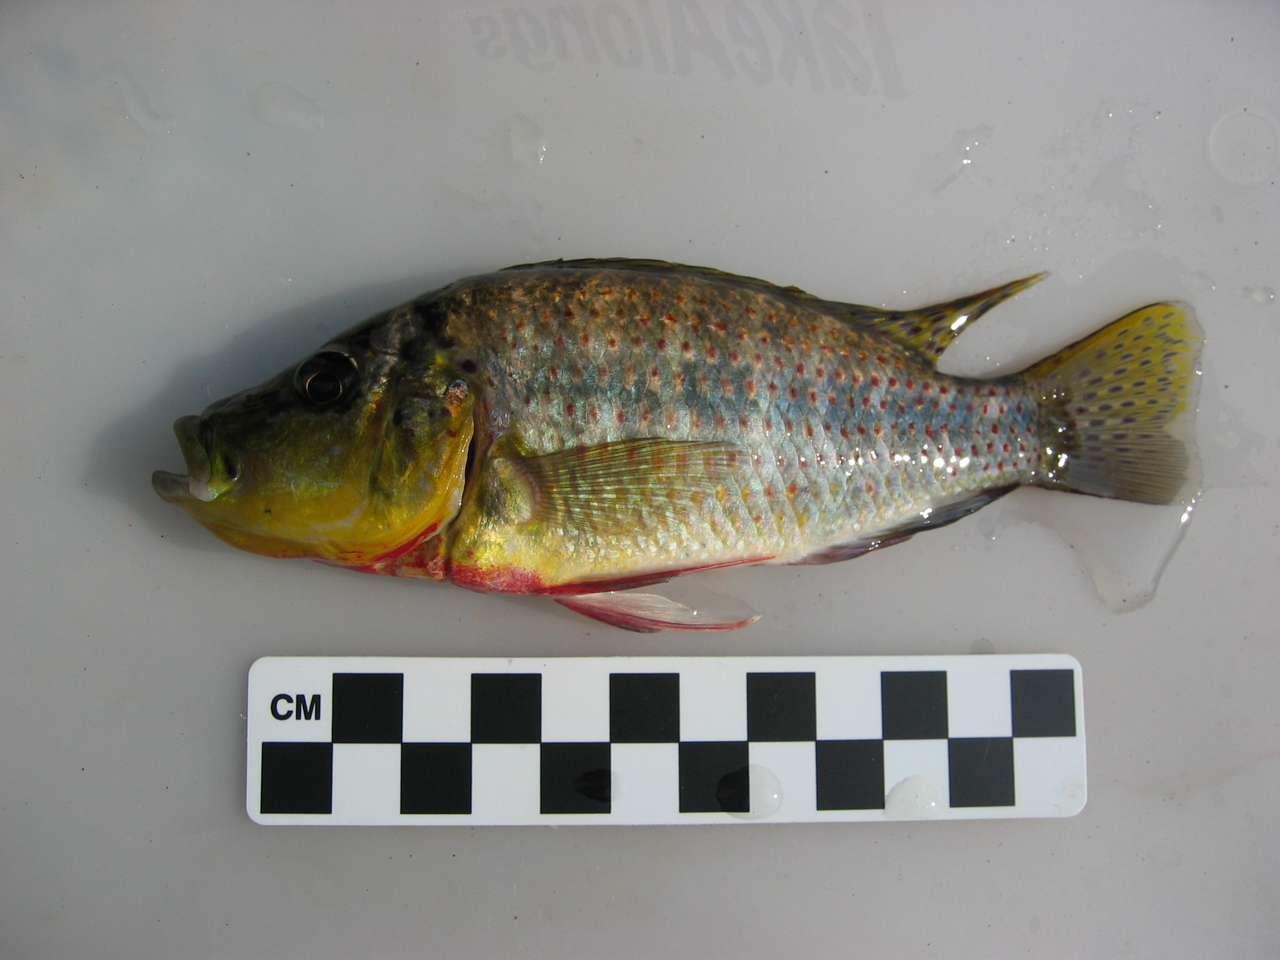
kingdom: Animalia
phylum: Chordata
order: Perciformes
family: Cichlidae
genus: Ctenochromis
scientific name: Ctenochromis horei
